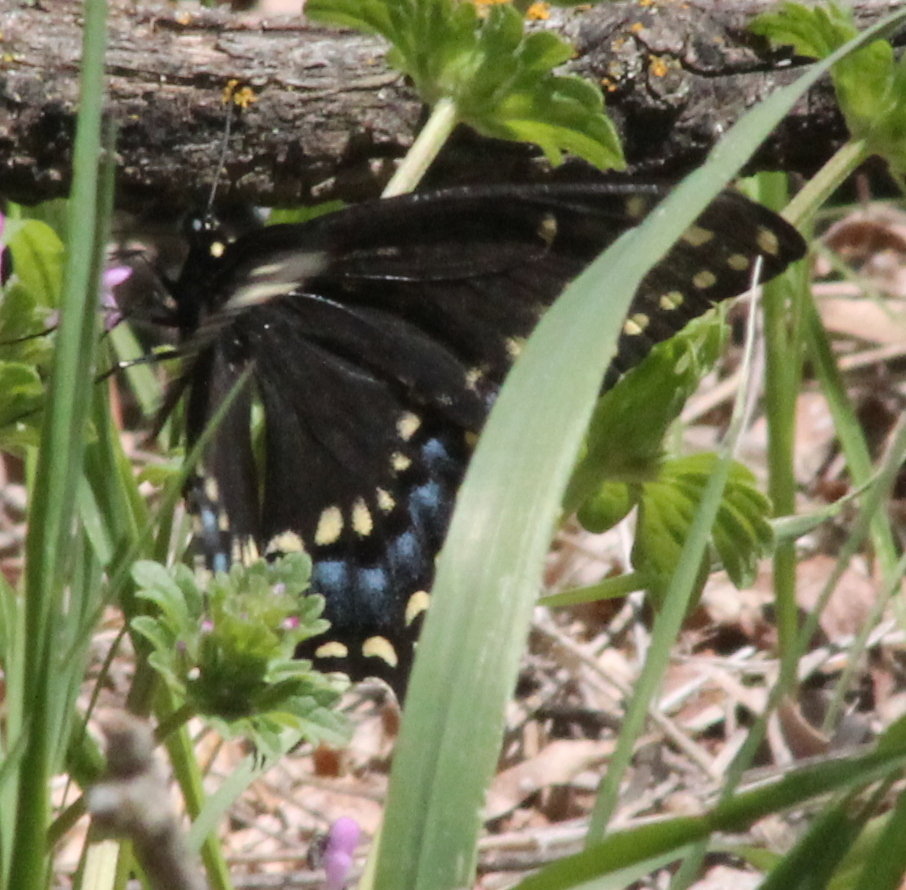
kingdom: Animalia
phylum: Arthropoda
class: Insecta
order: Lepidoptera
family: Papilionidae
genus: Papilio
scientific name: Papilio polyxenes
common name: Black swallowtail
